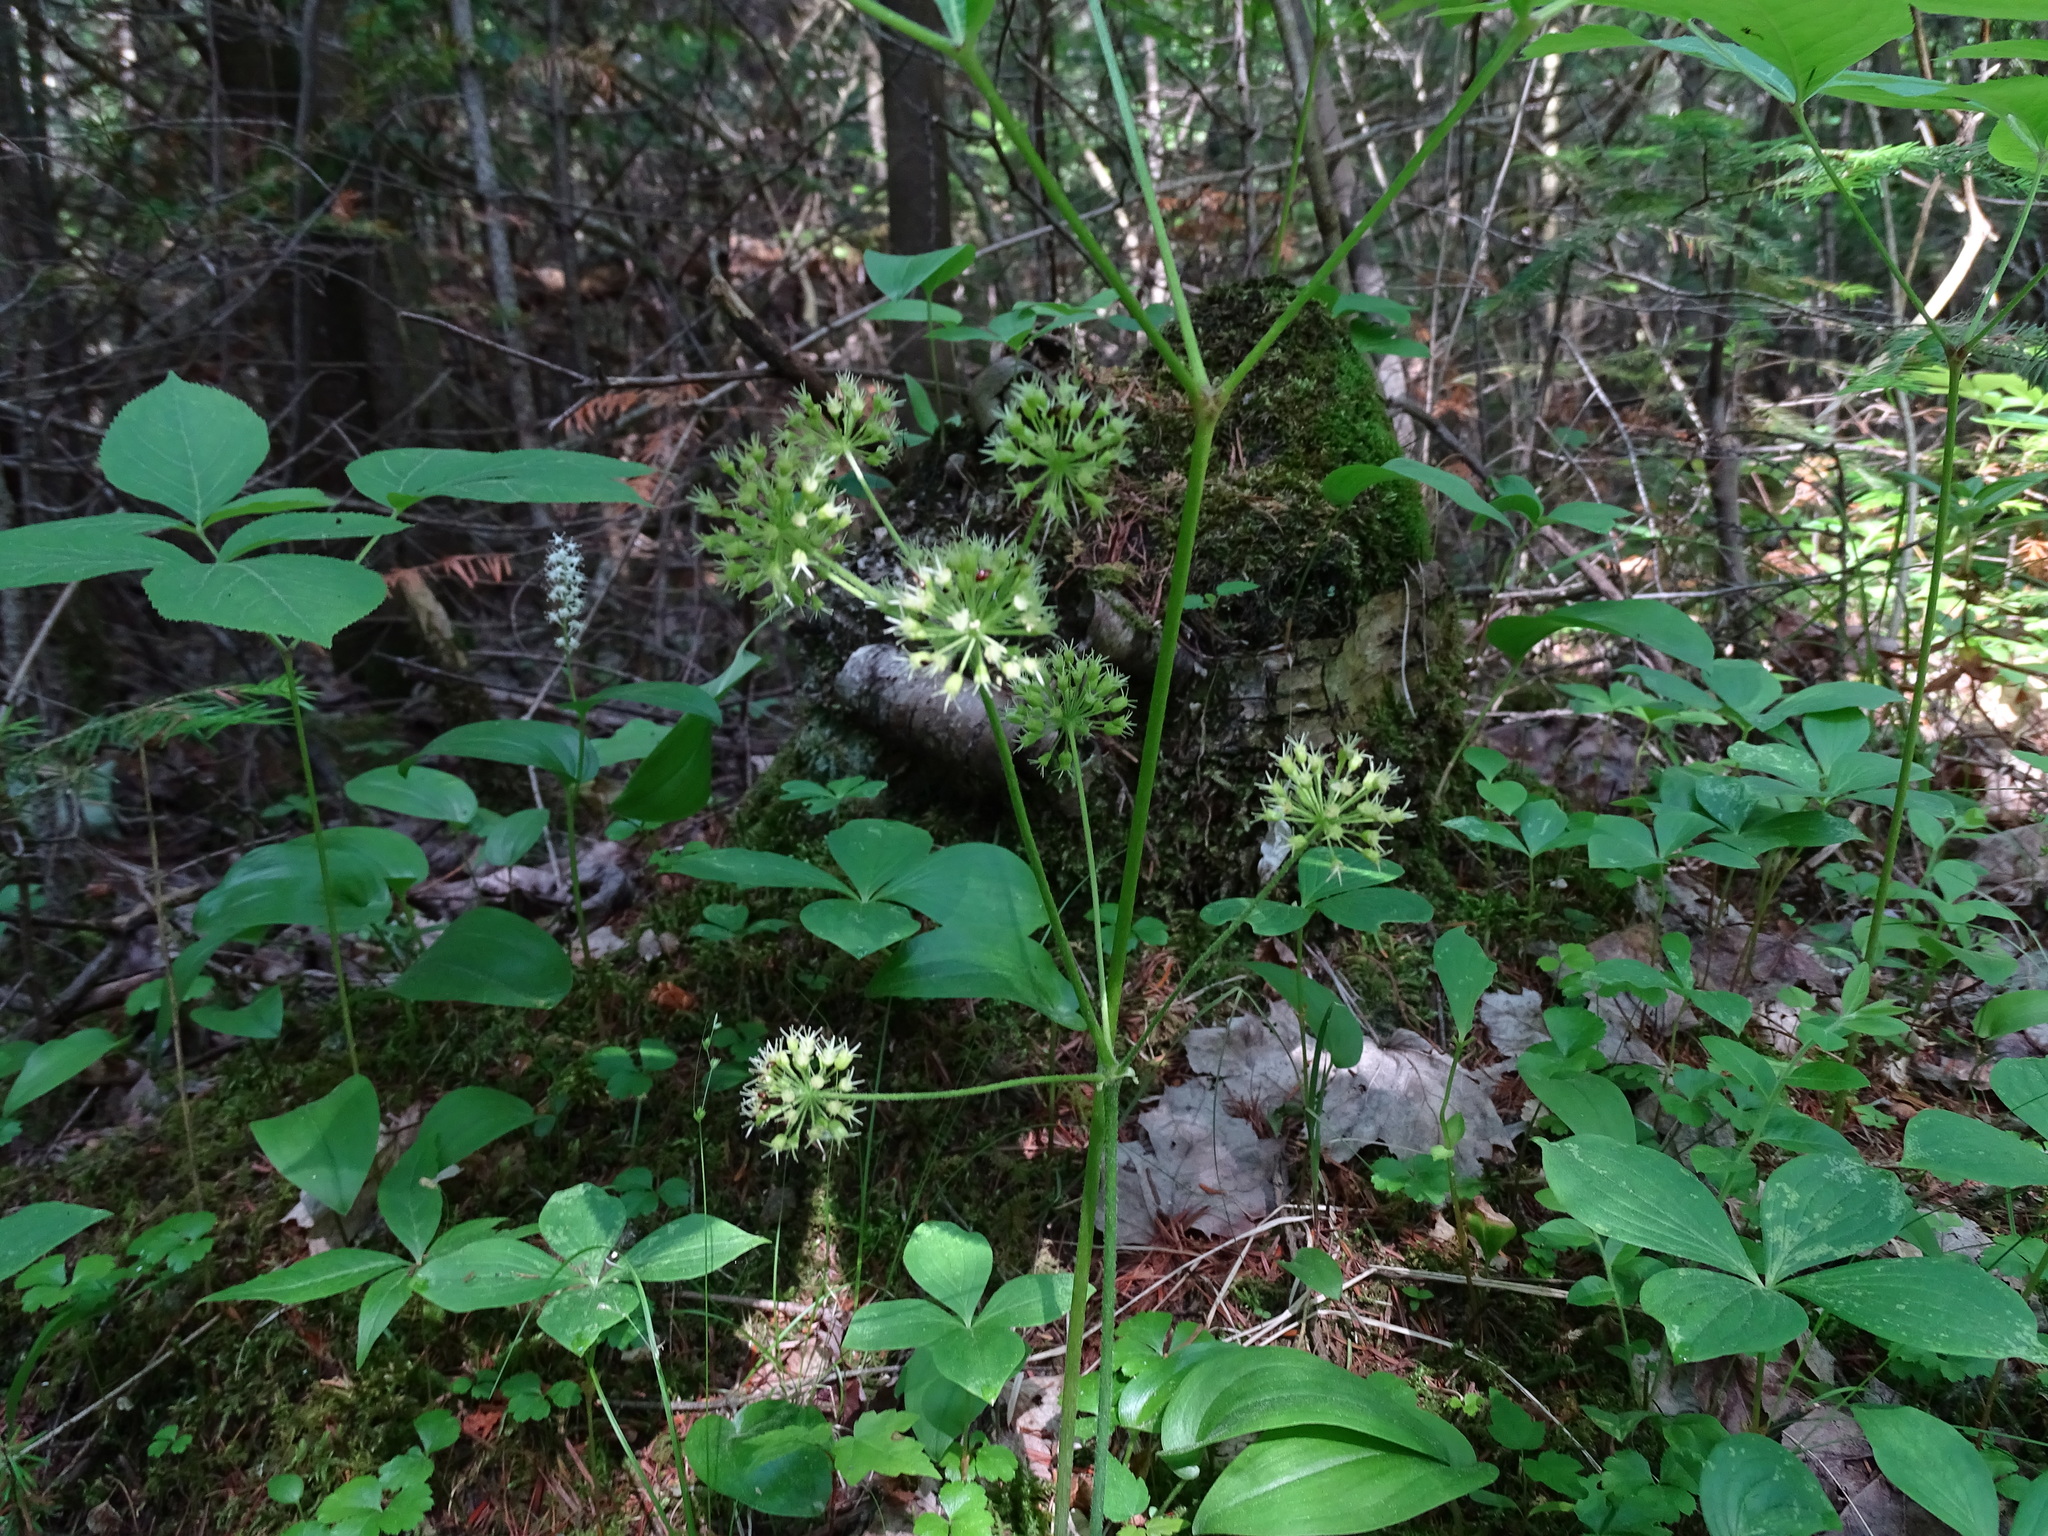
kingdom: Plantae
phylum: Tracheophyta
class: Magnoliopsida
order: Apiales
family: Araliaceae
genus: Aralia
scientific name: Aralia nudicaulis
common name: Wild sarsaparilla
